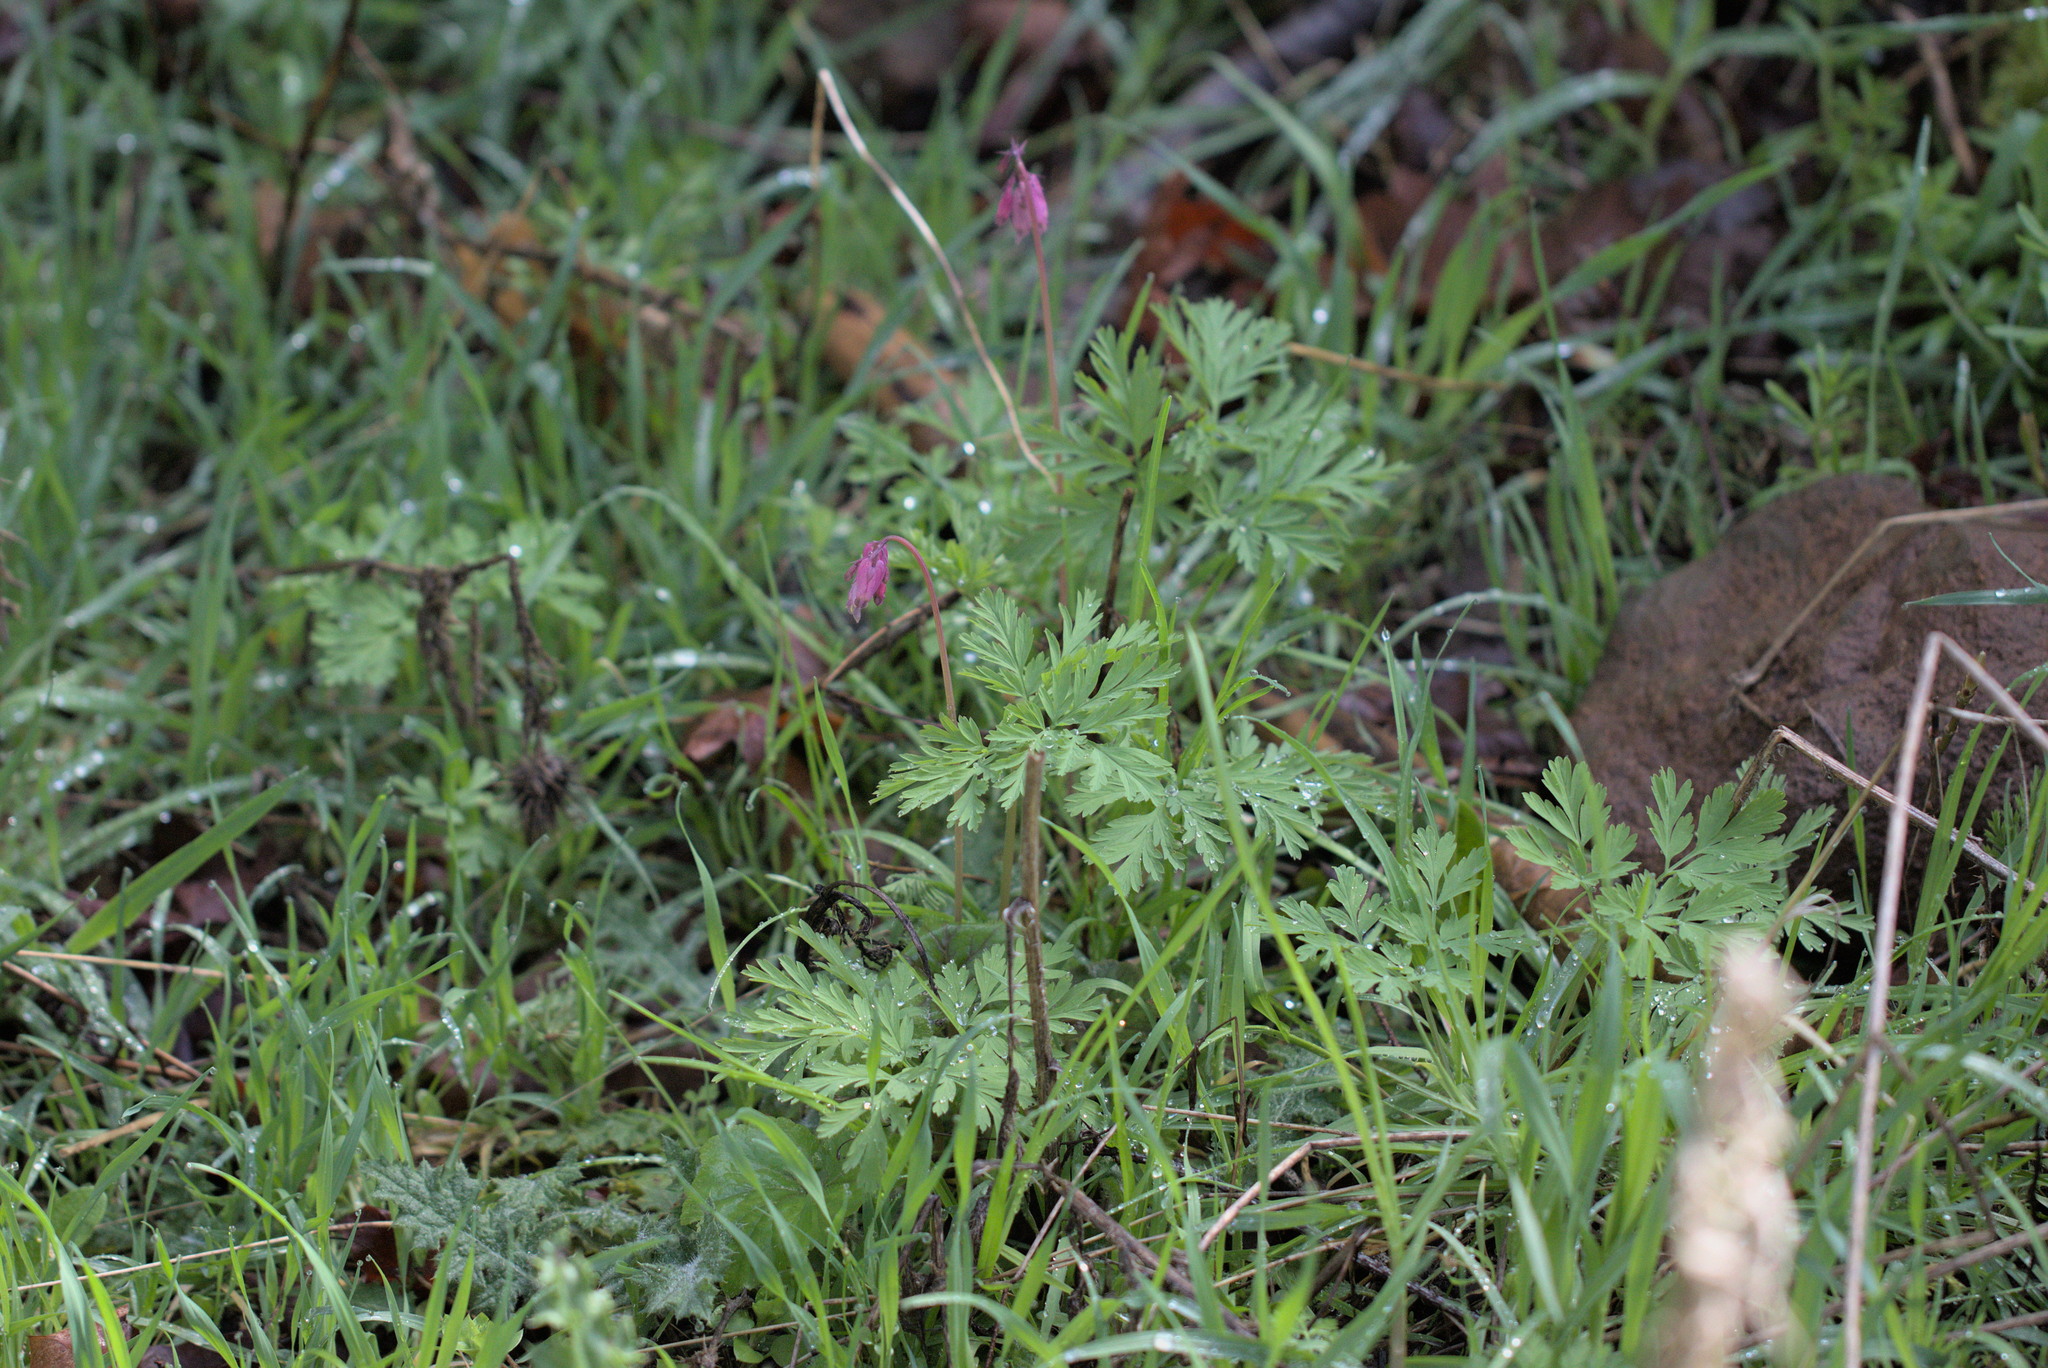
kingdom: Plantae
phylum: Tracheophyta
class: Magnoliopsida
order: Ranunculales
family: Papaveraceae
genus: Dicentra
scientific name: Dicentra formosa
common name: Bleeding-heart
